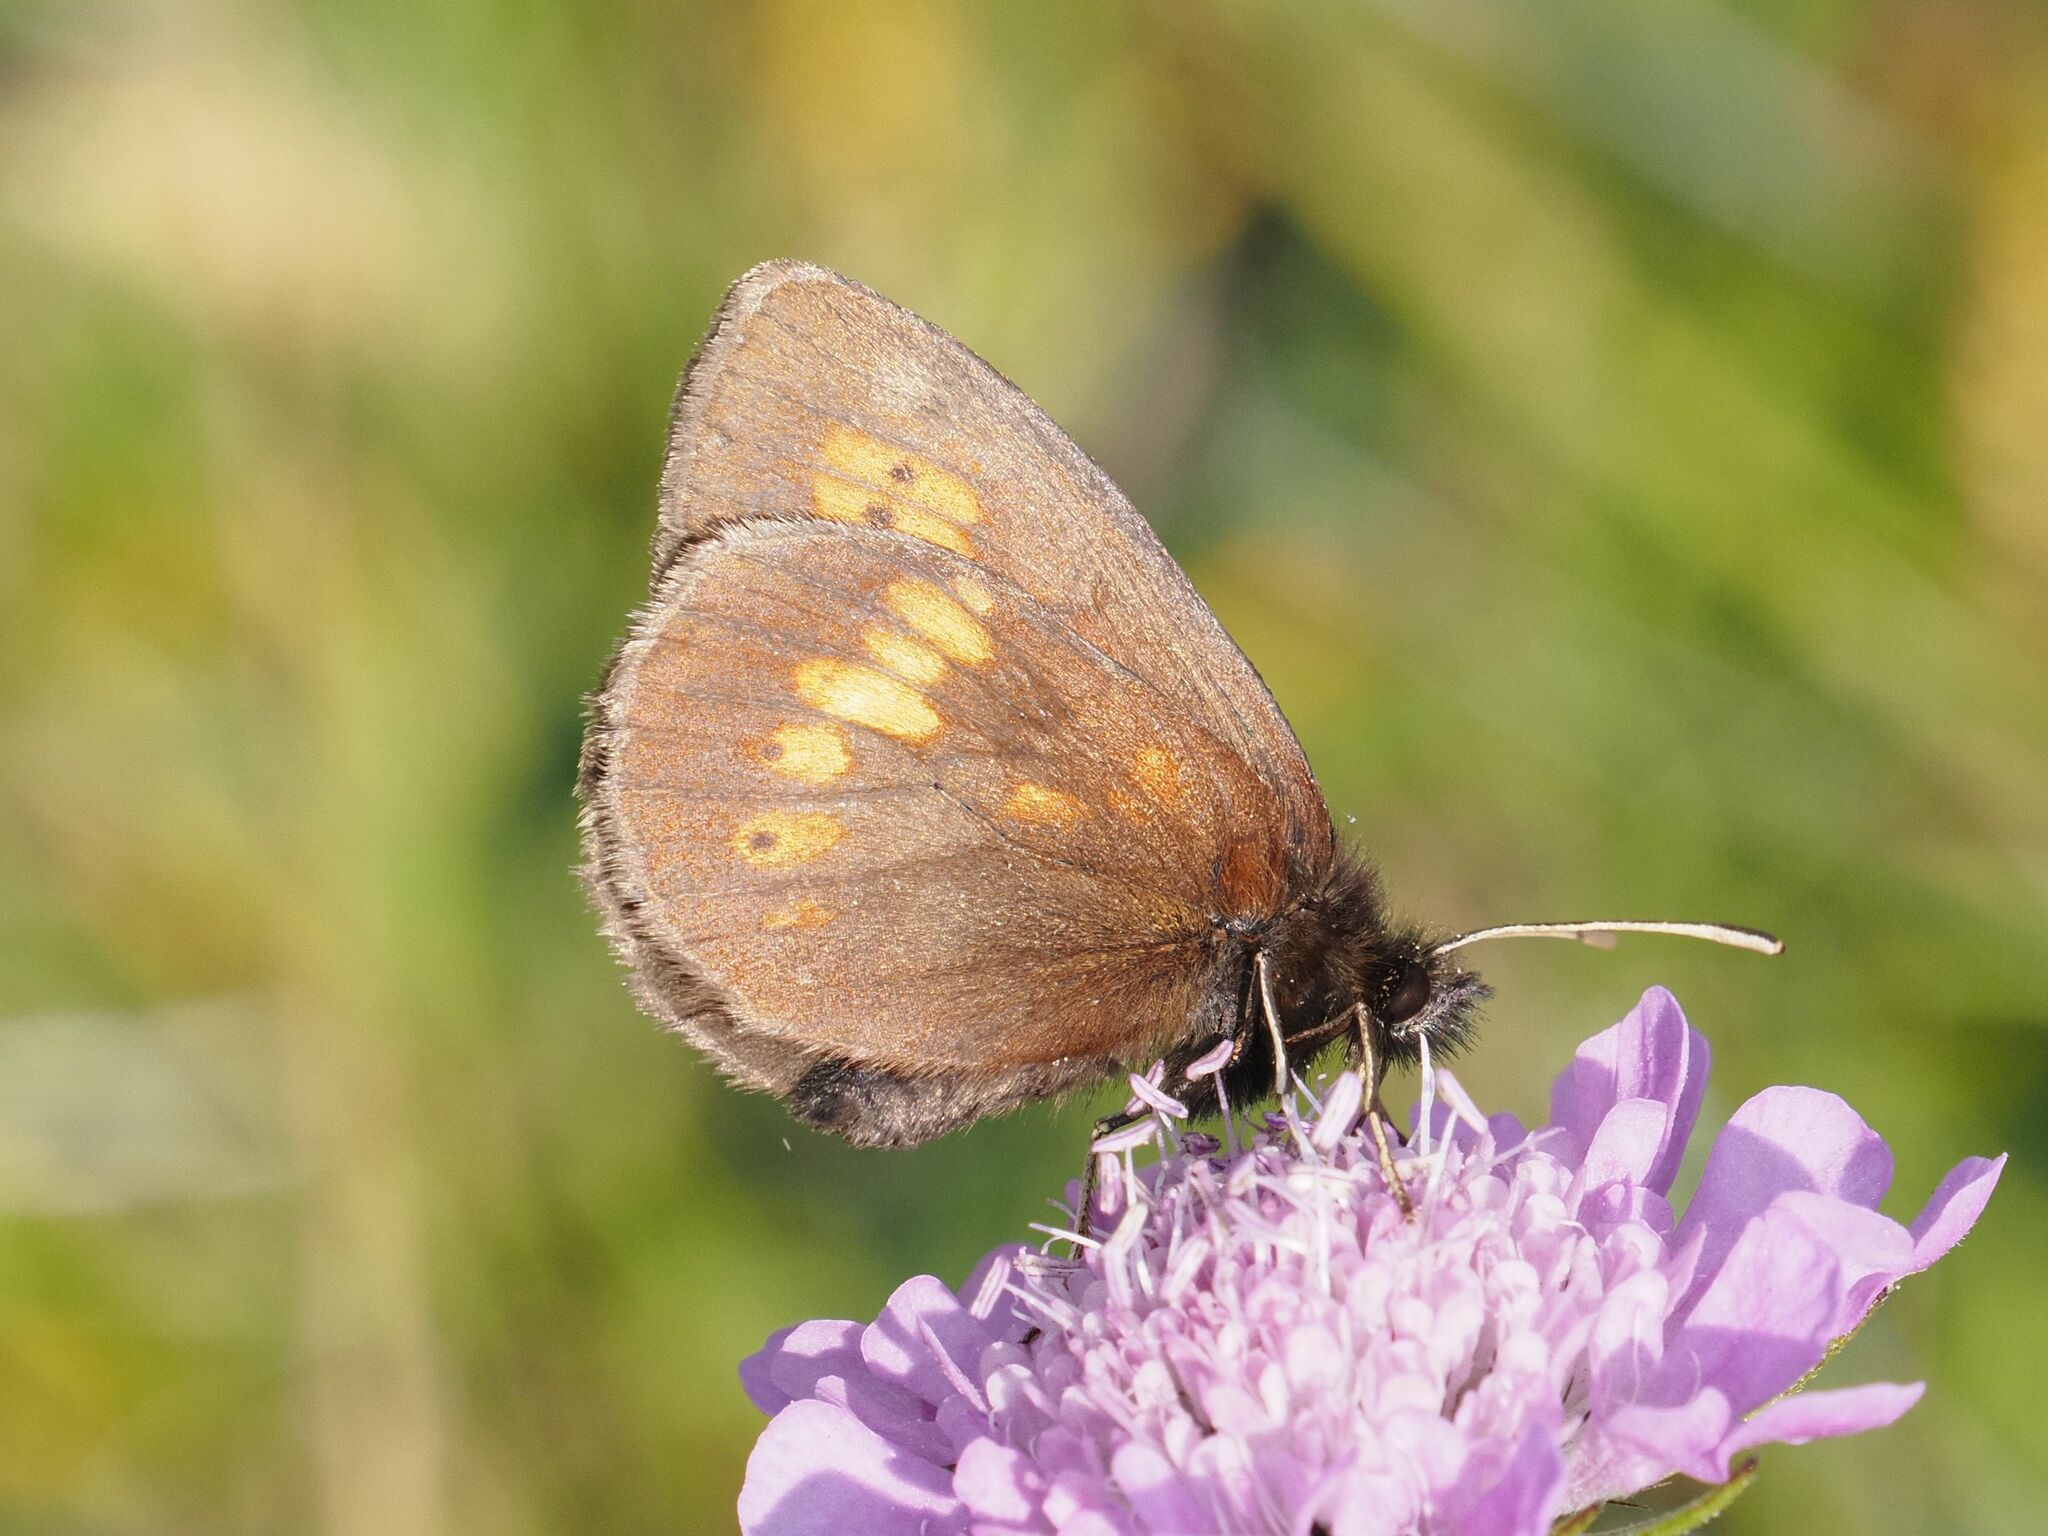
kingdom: Animalia
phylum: Arthropoda
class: Insecta
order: Lepidoptera
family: Nymphalidae
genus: Erebia
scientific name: Erebia manto
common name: Yellow-spotted ringlet
